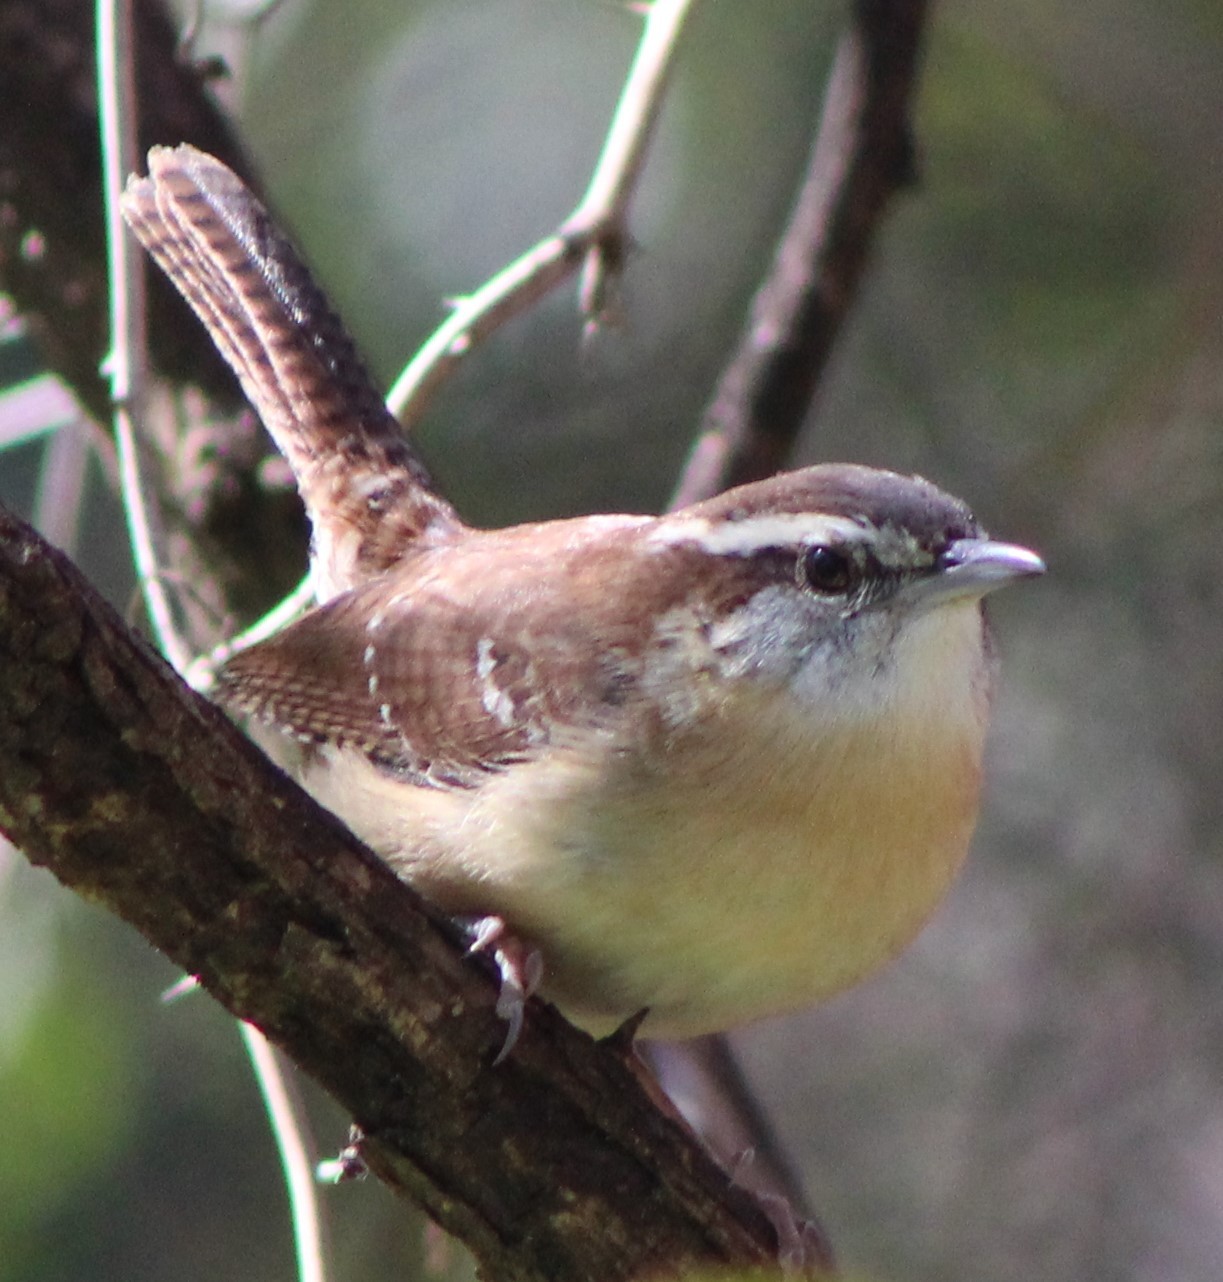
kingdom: Animalia
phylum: Chordata
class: Aves
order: Passeriformes
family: Troglodytidae
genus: Thryothorus
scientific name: Thryothorus ludovicianus
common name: Carolina wren
